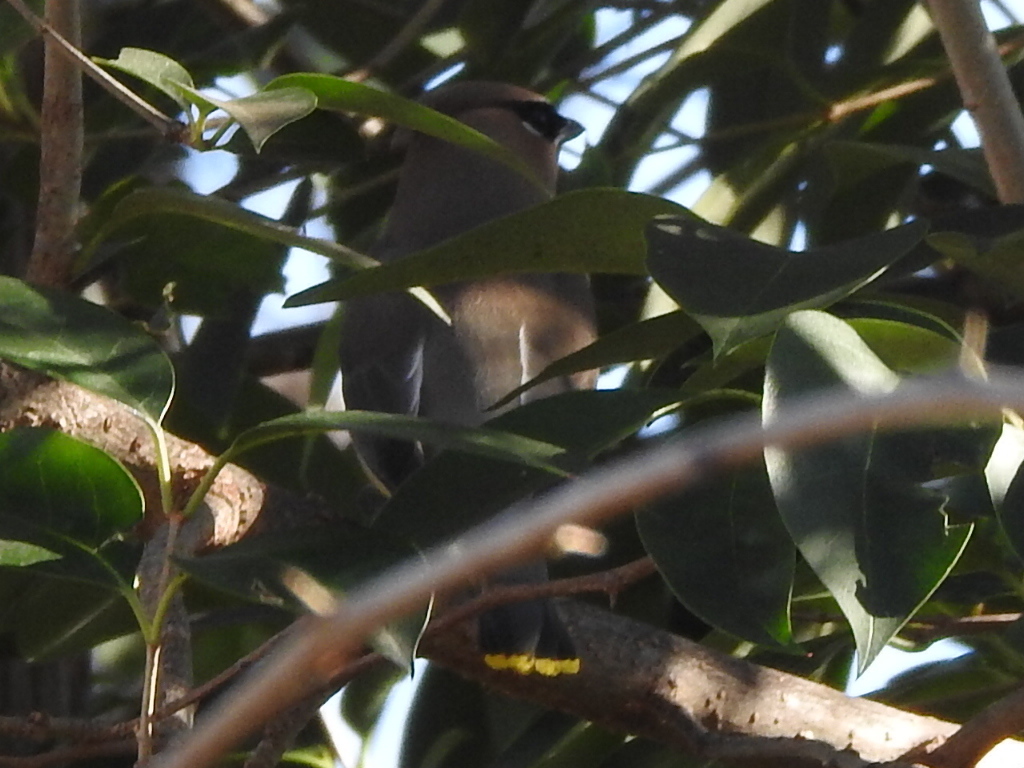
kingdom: Animalia
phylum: Chordata
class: Aves
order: Passeriformes
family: Bombycillidae
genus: Bombycilla
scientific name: Bombycilla cedrorum
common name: Cedar waxwing
